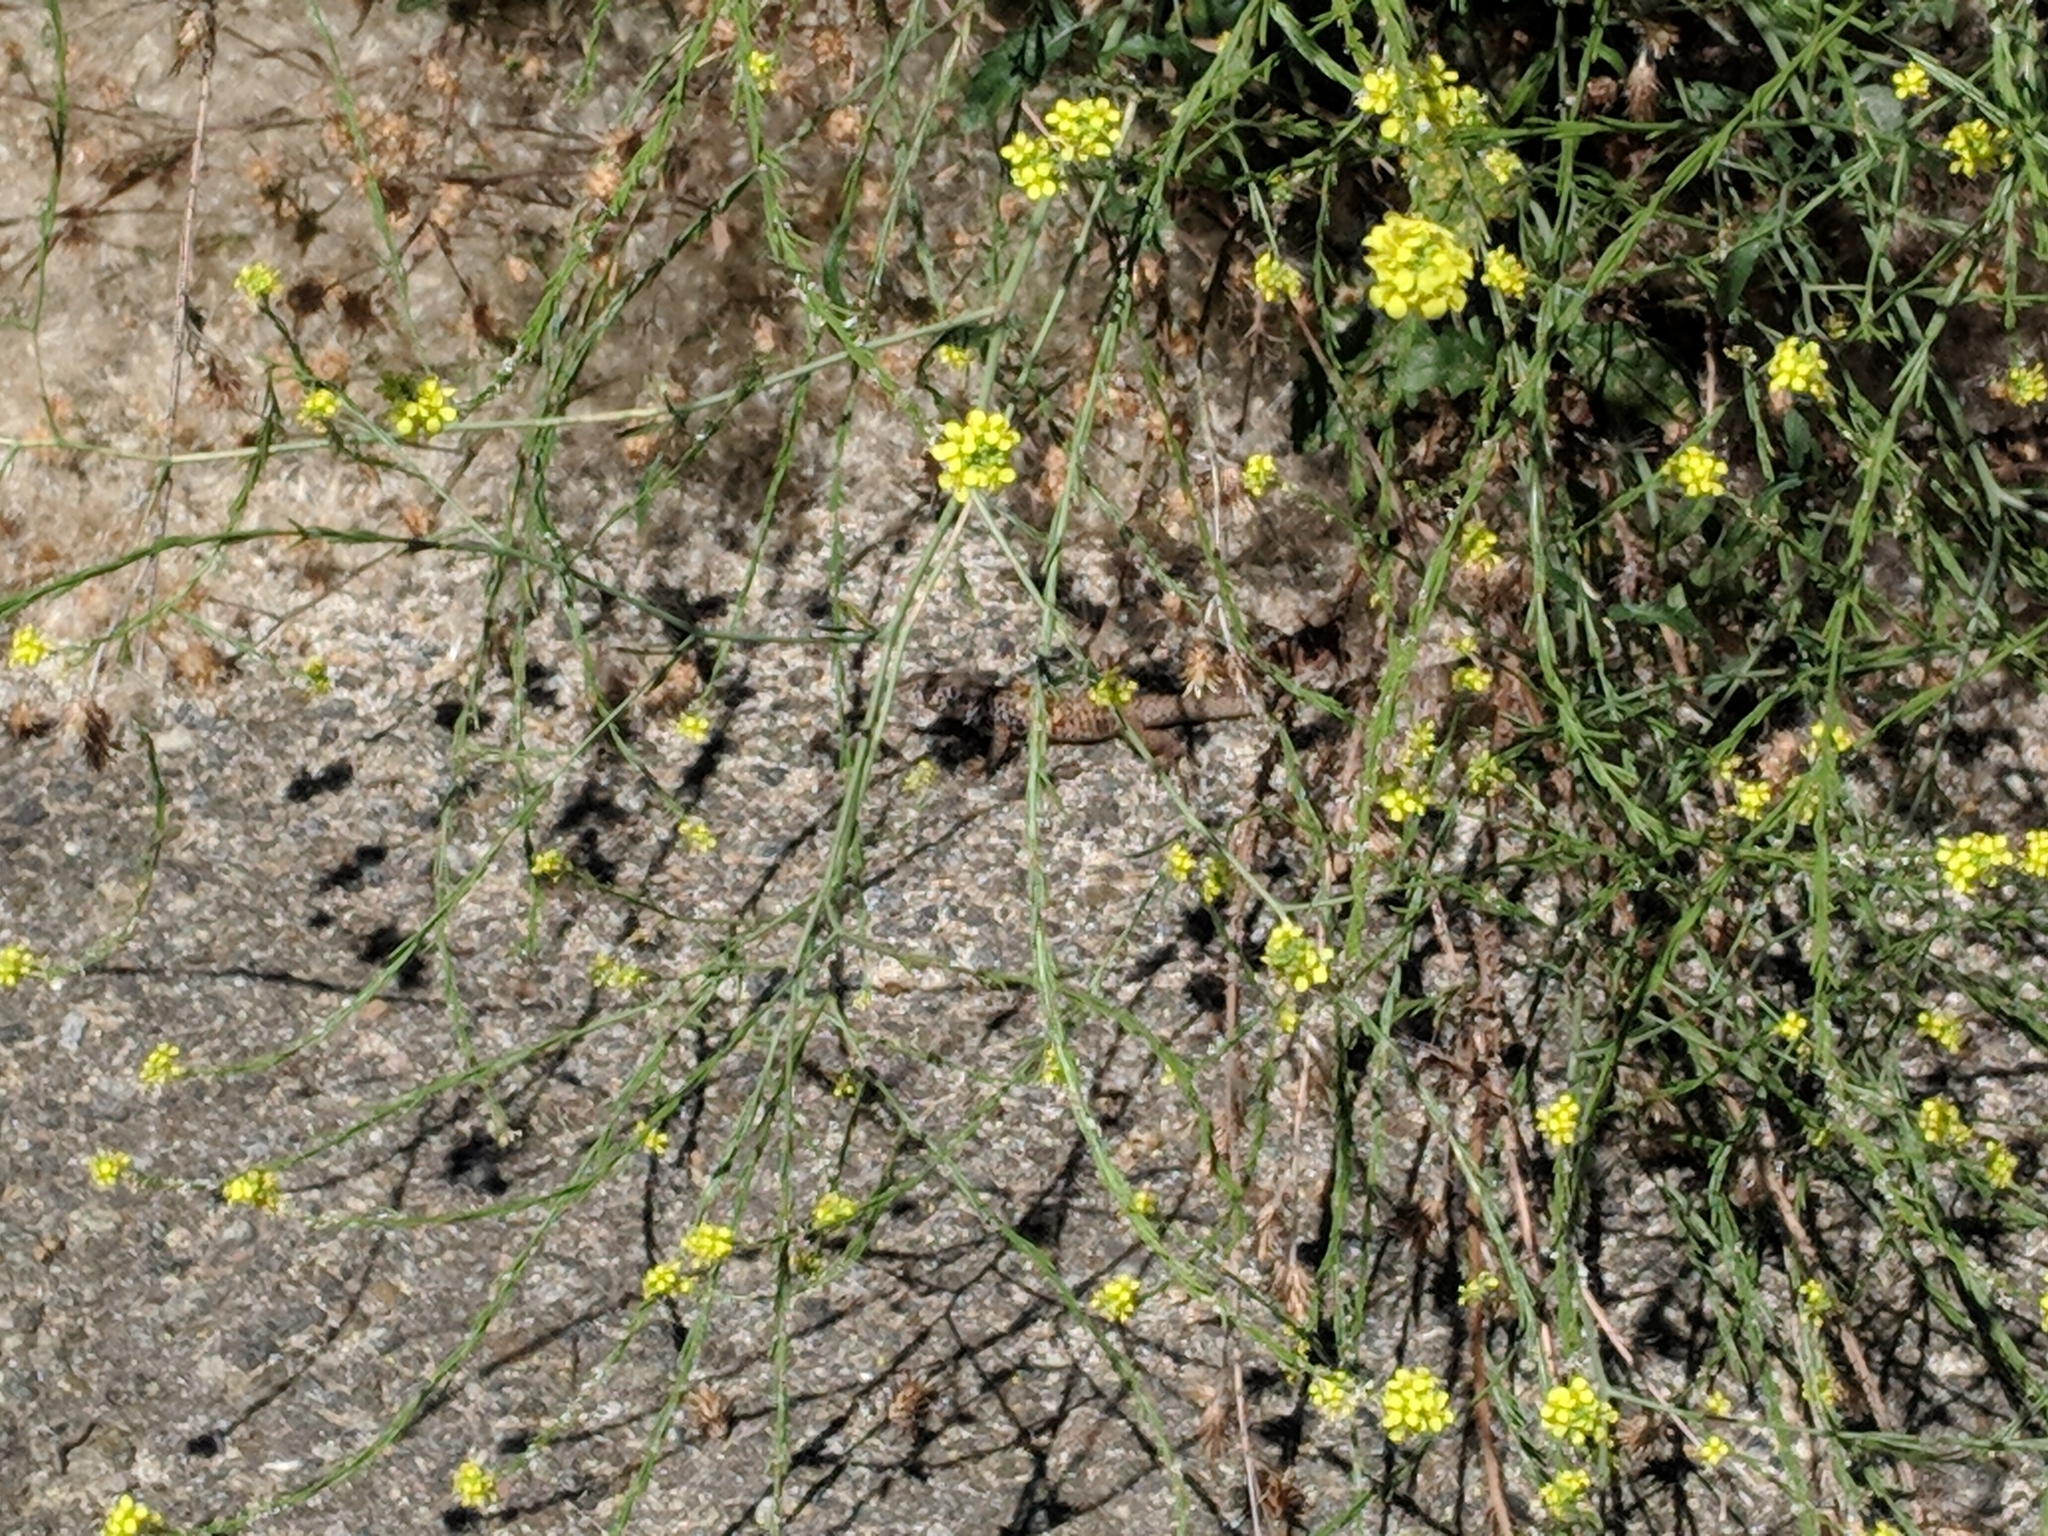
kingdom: Animalia
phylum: Chordata
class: Squamata
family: Teiidae
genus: Aspidoscelis
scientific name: Aspidoscelis tigris
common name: Tiger whiptail
